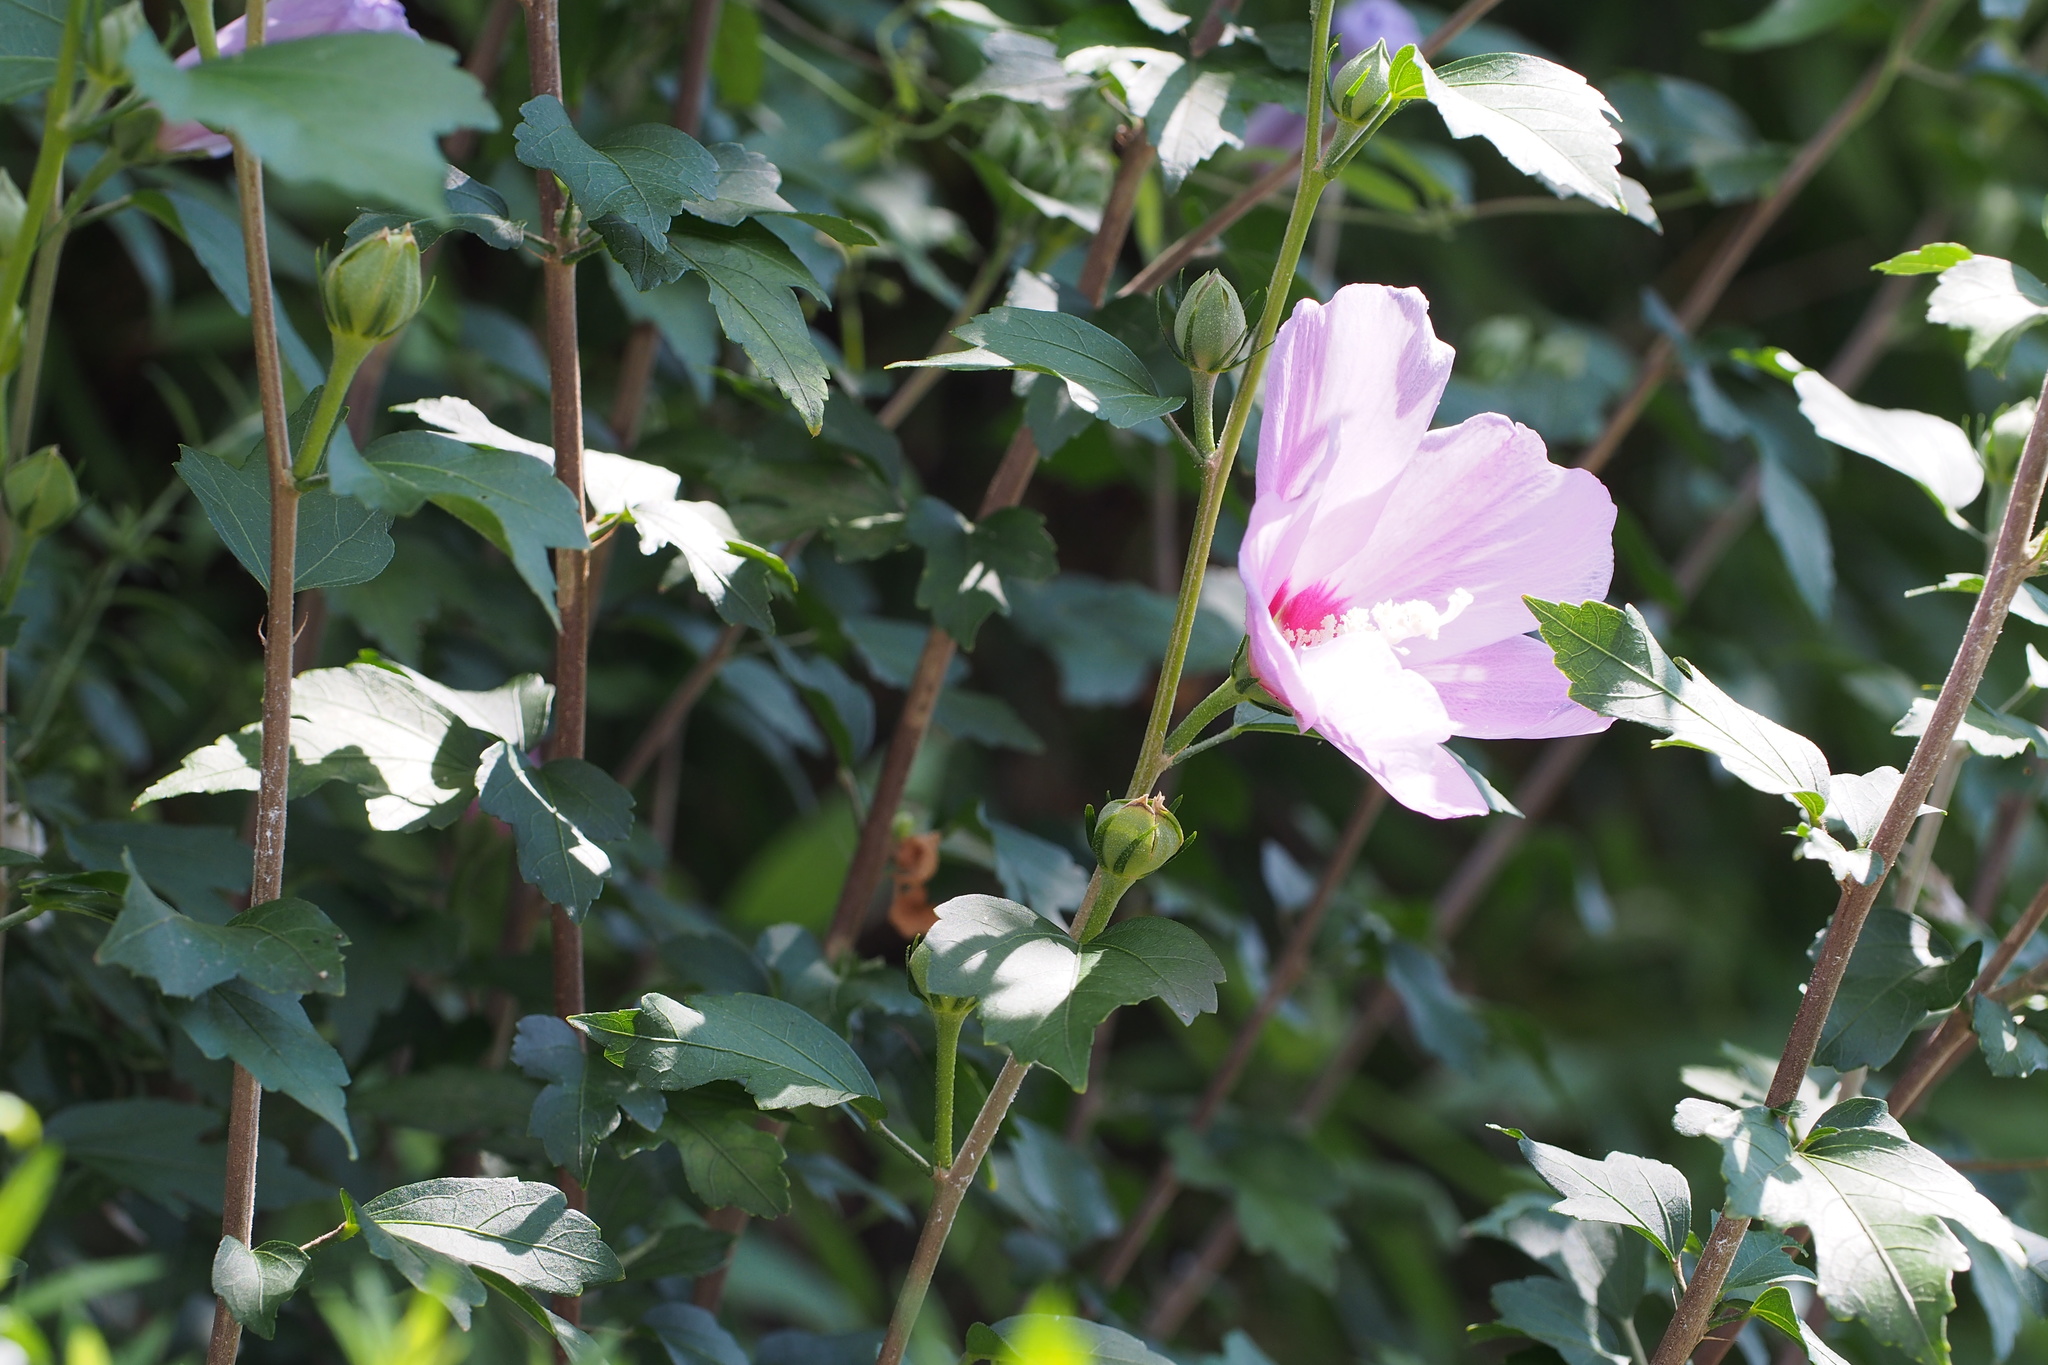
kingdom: Plantae
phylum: Tracheophyta
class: Magnoliopsida
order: Malvales
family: Malvaceae
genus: Hibiscus
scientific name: Hibiscus syriacus
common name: Syrian ketmia
